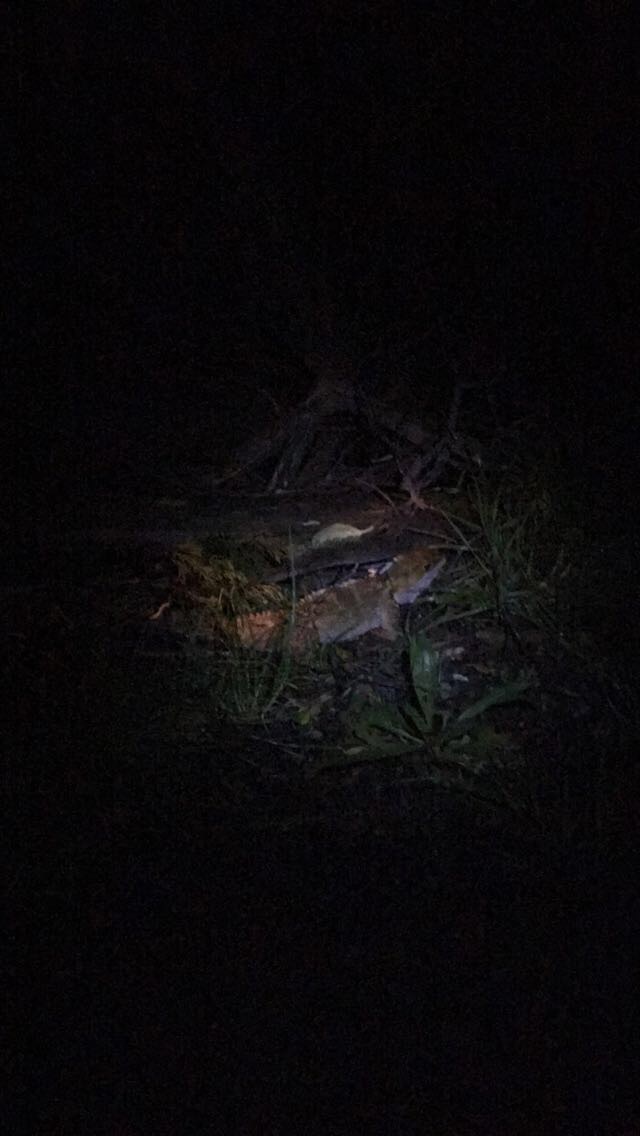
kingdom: Animalia
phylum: Chordata
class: Sphenodontia
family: Sphenodontidae
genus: Sphenodon
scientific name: Sphenodon punctatus
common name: Tuatara
